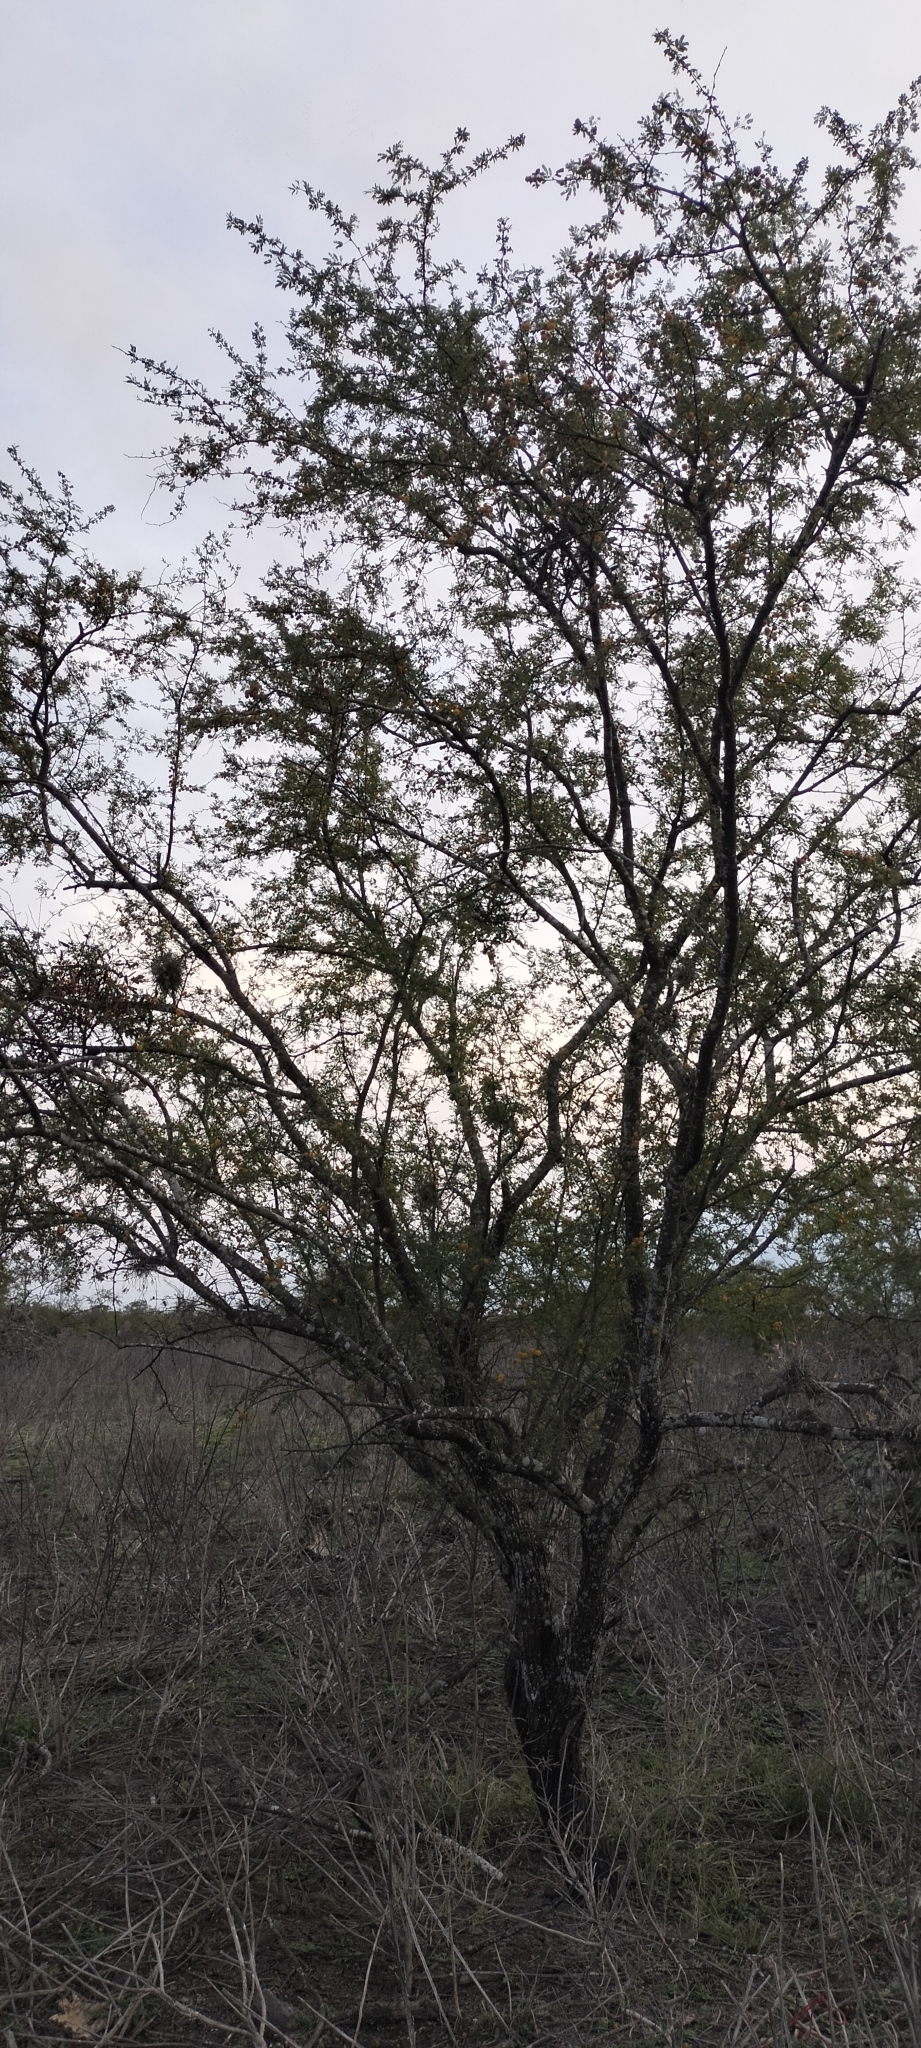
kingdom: Plantae
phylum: Tracheophyta
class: Magnoliopsida
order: Fabales
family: Fabaceae
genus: Vachellia
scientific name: Vachellia farnesiana
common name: Sweet acacia
